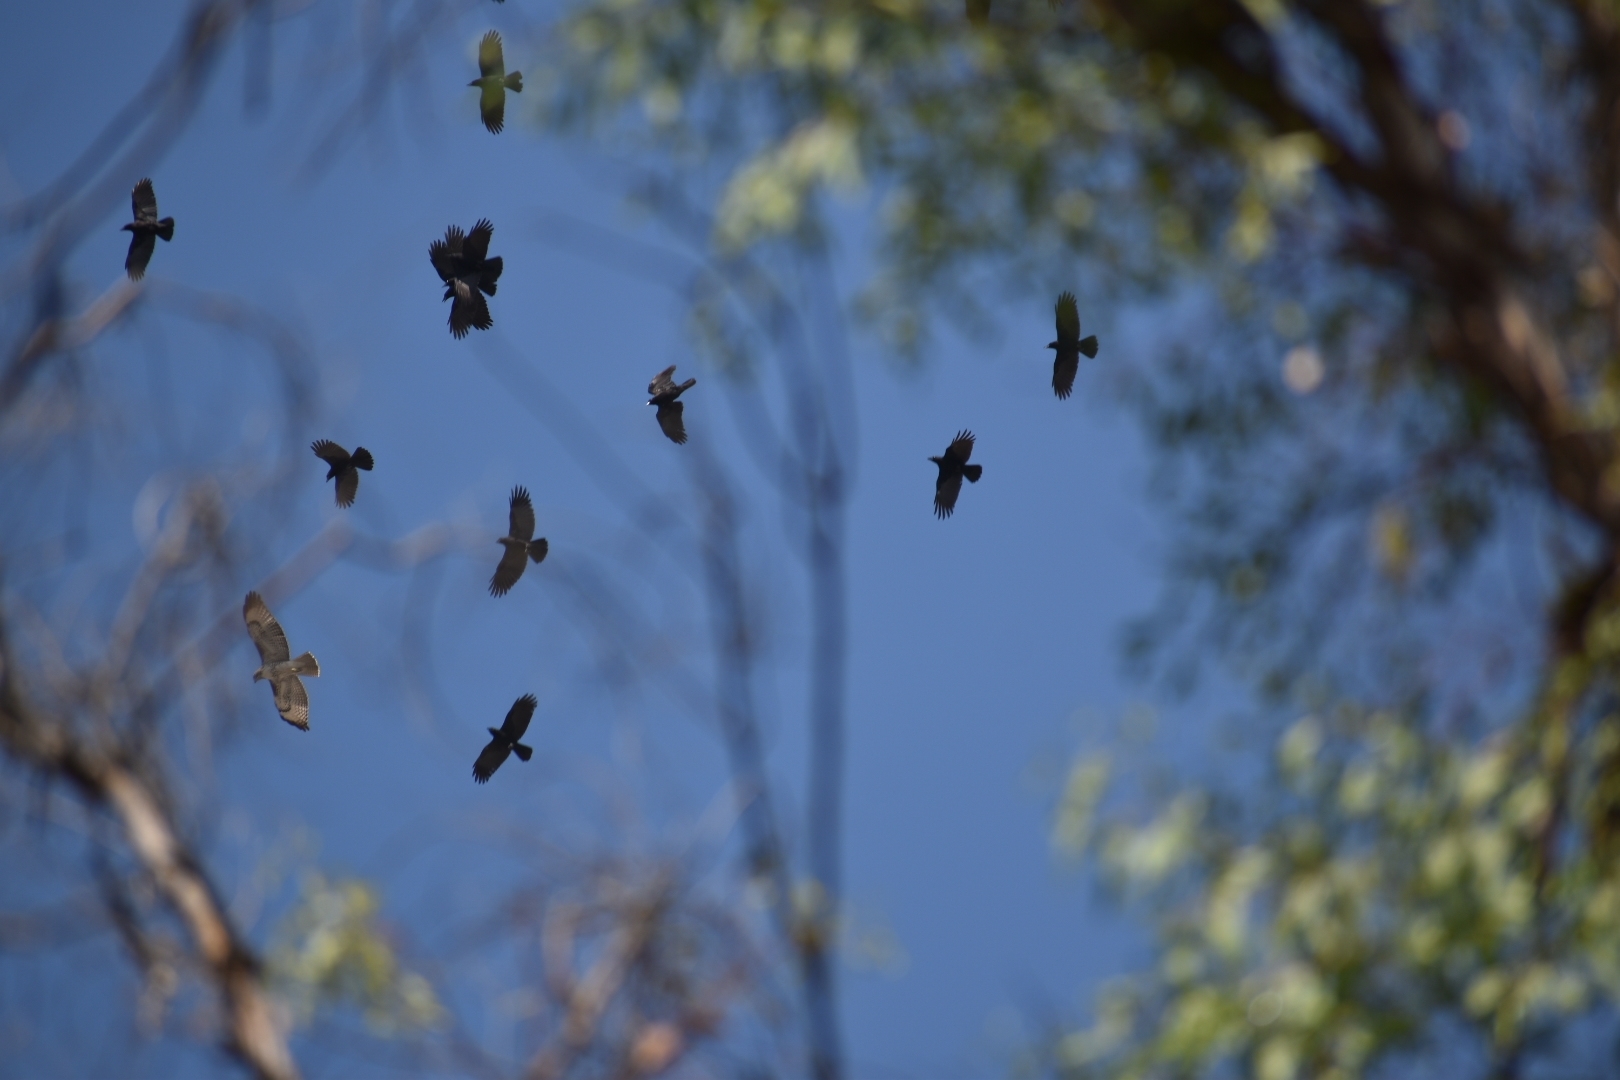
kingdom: Animalia
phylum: Chordata
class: Aves
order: Passeriformes
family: Corvidae
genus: Corvus
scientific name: Corvus brachyrhynchos
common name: American crow
